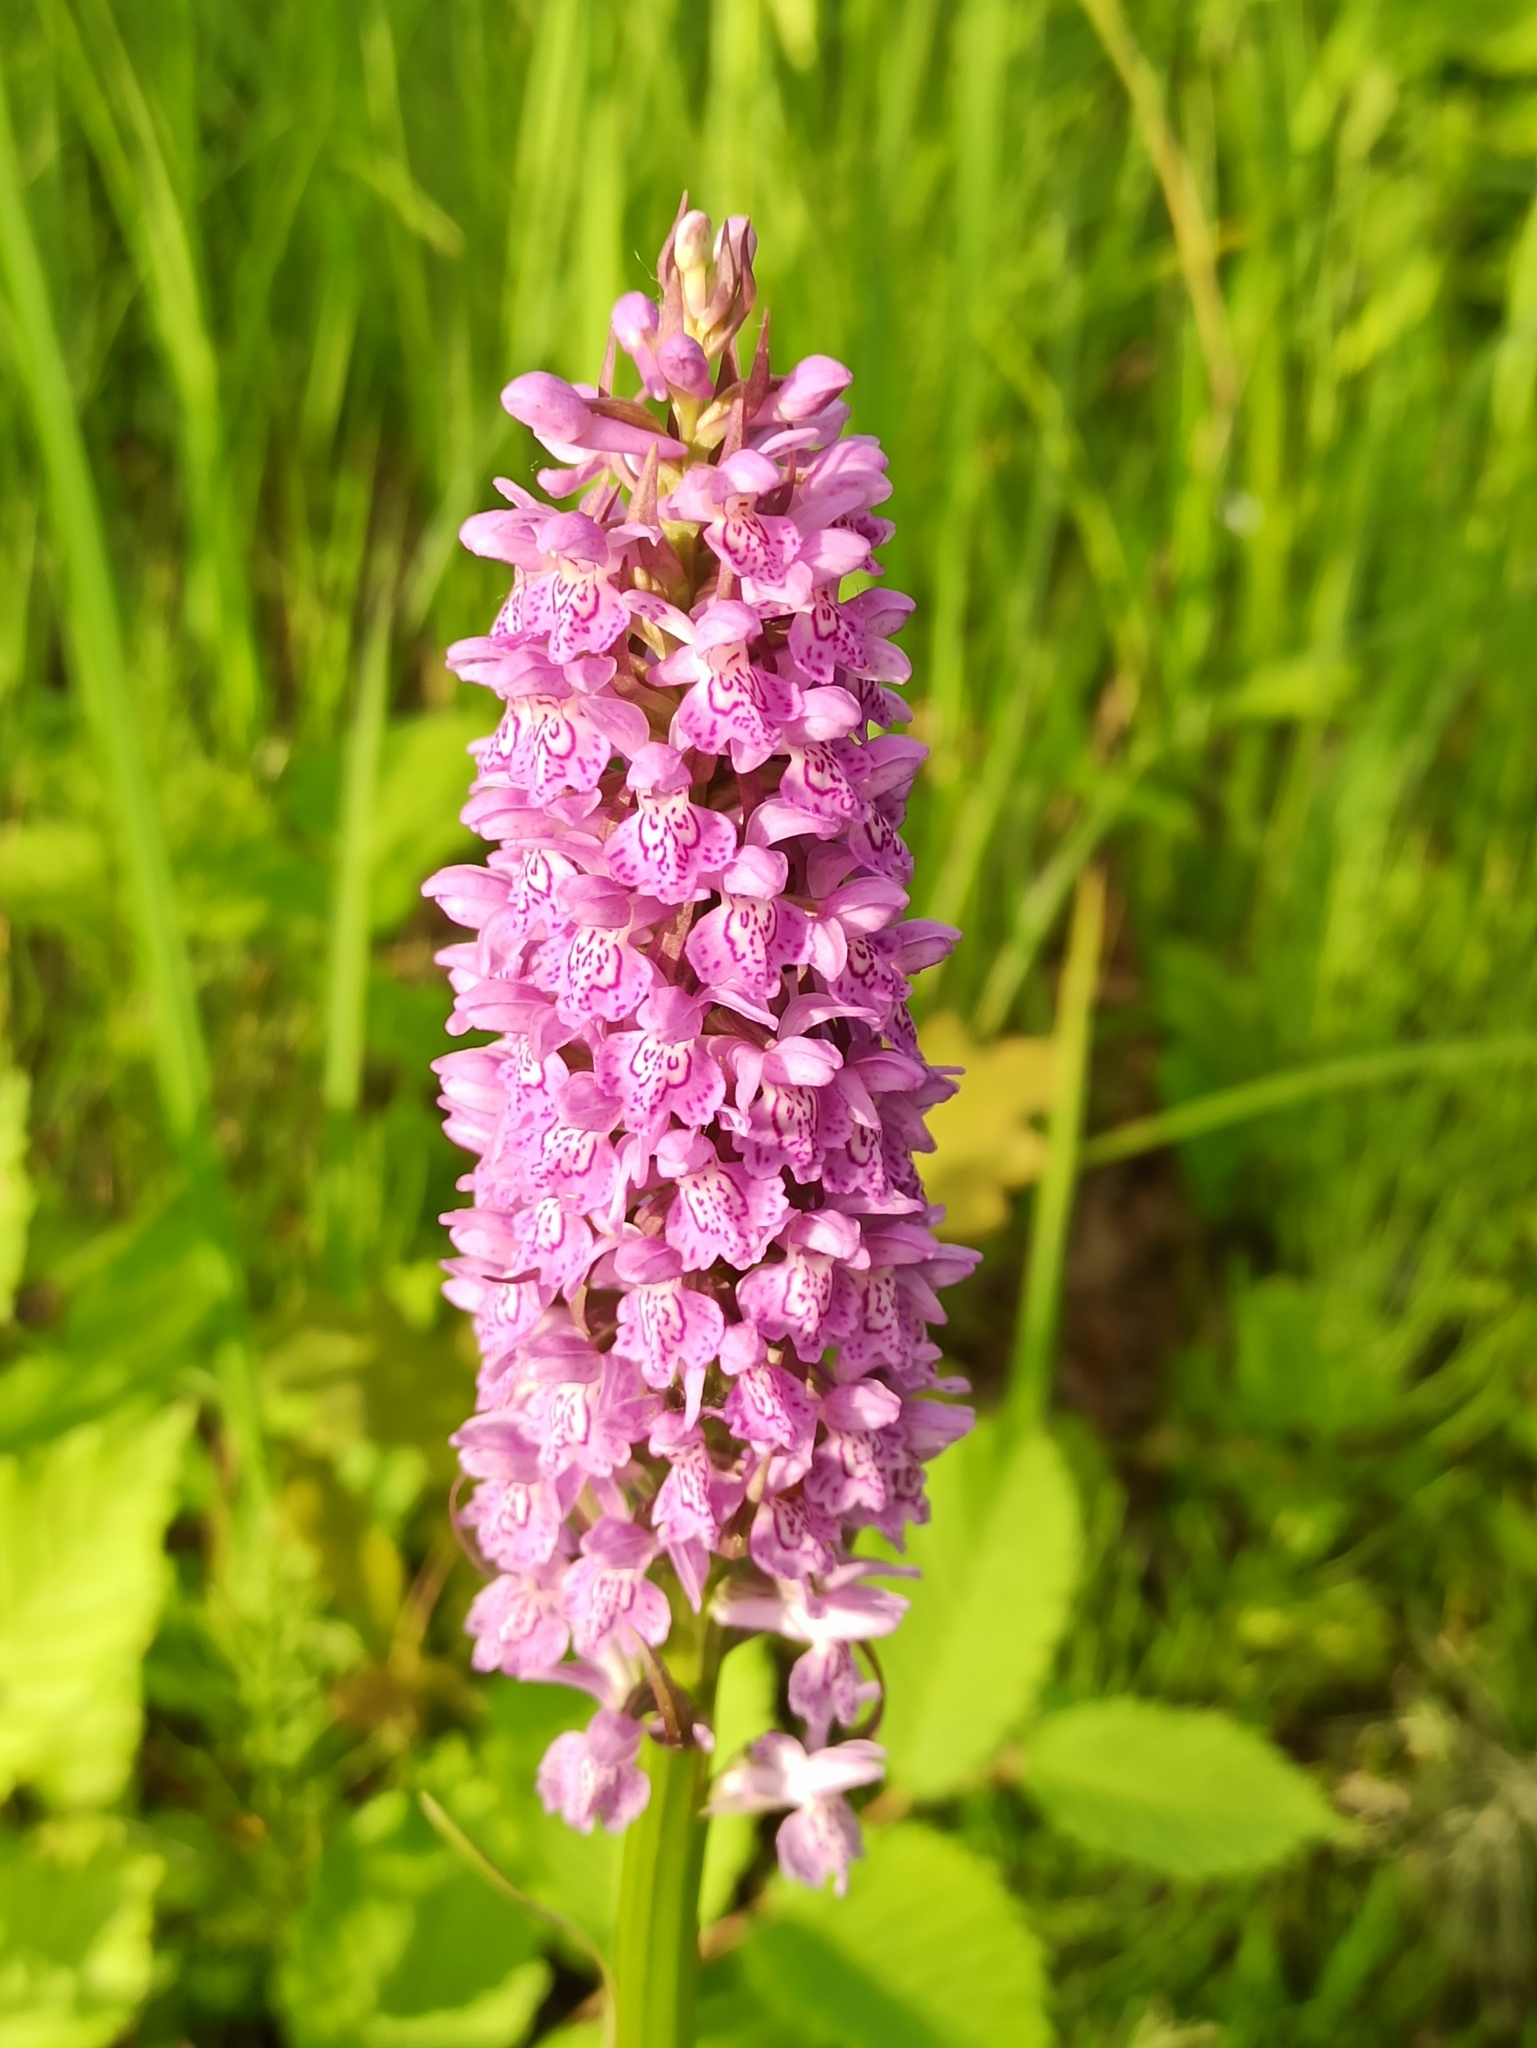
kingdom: Plantae
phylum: Tracheophyta
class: Liliopsida
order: Asparagales
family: Orchidaceae
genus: Dactylorhiza
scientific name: Dactylorhiza majalis
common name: Marsh orchid
